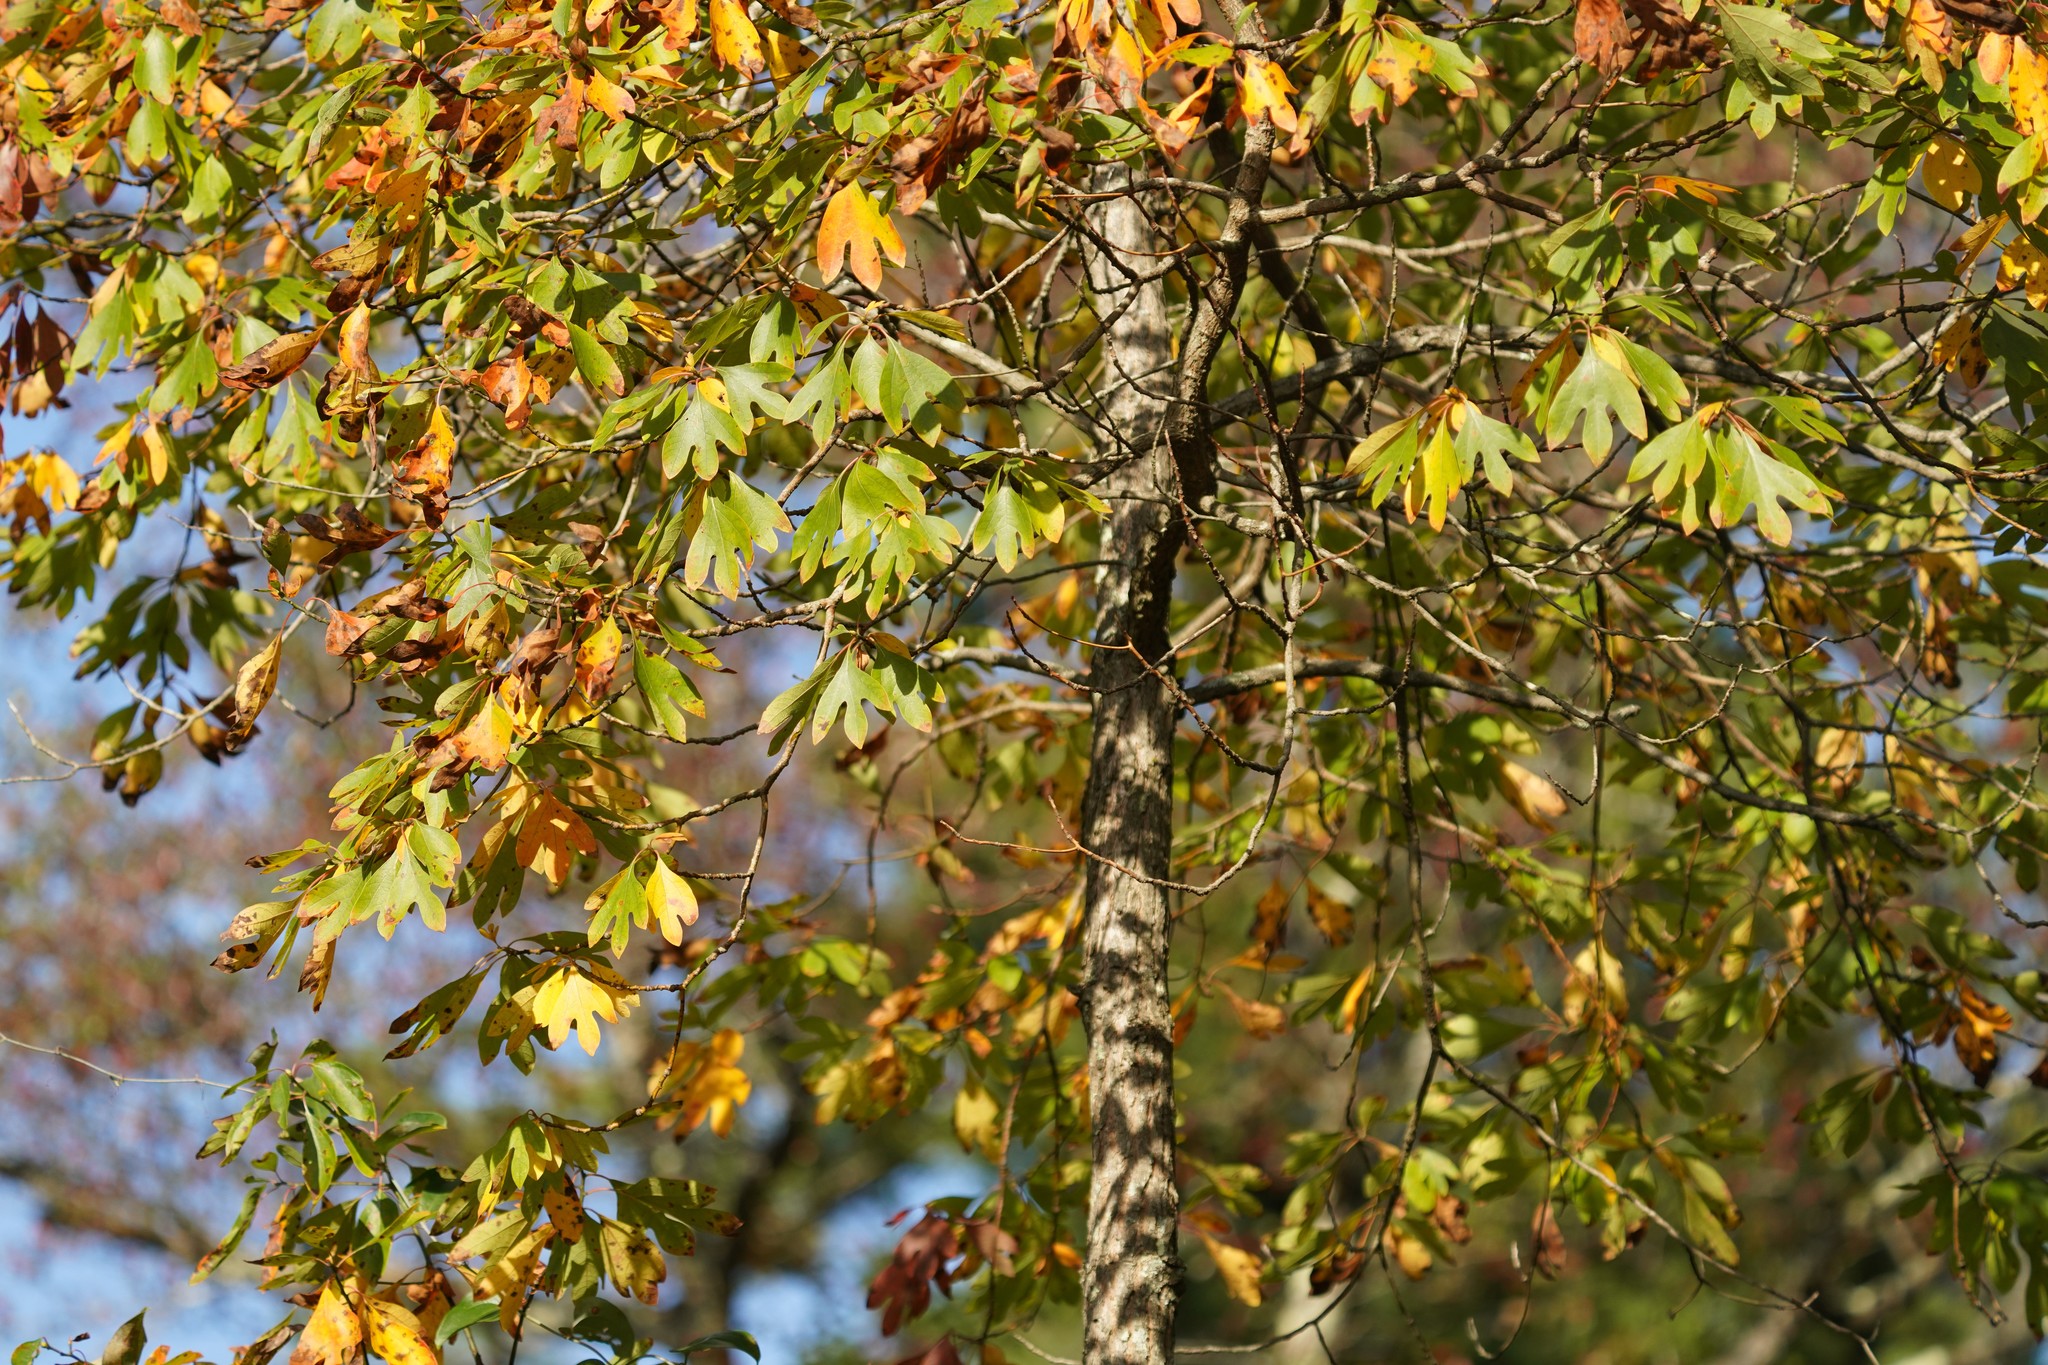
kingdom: Plantae
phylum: Tracheophyta
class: Magnoliopsida
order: Laurales
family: Lauraceae
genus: Sassafras
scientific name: Sassafras albidum
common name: Sassafras
